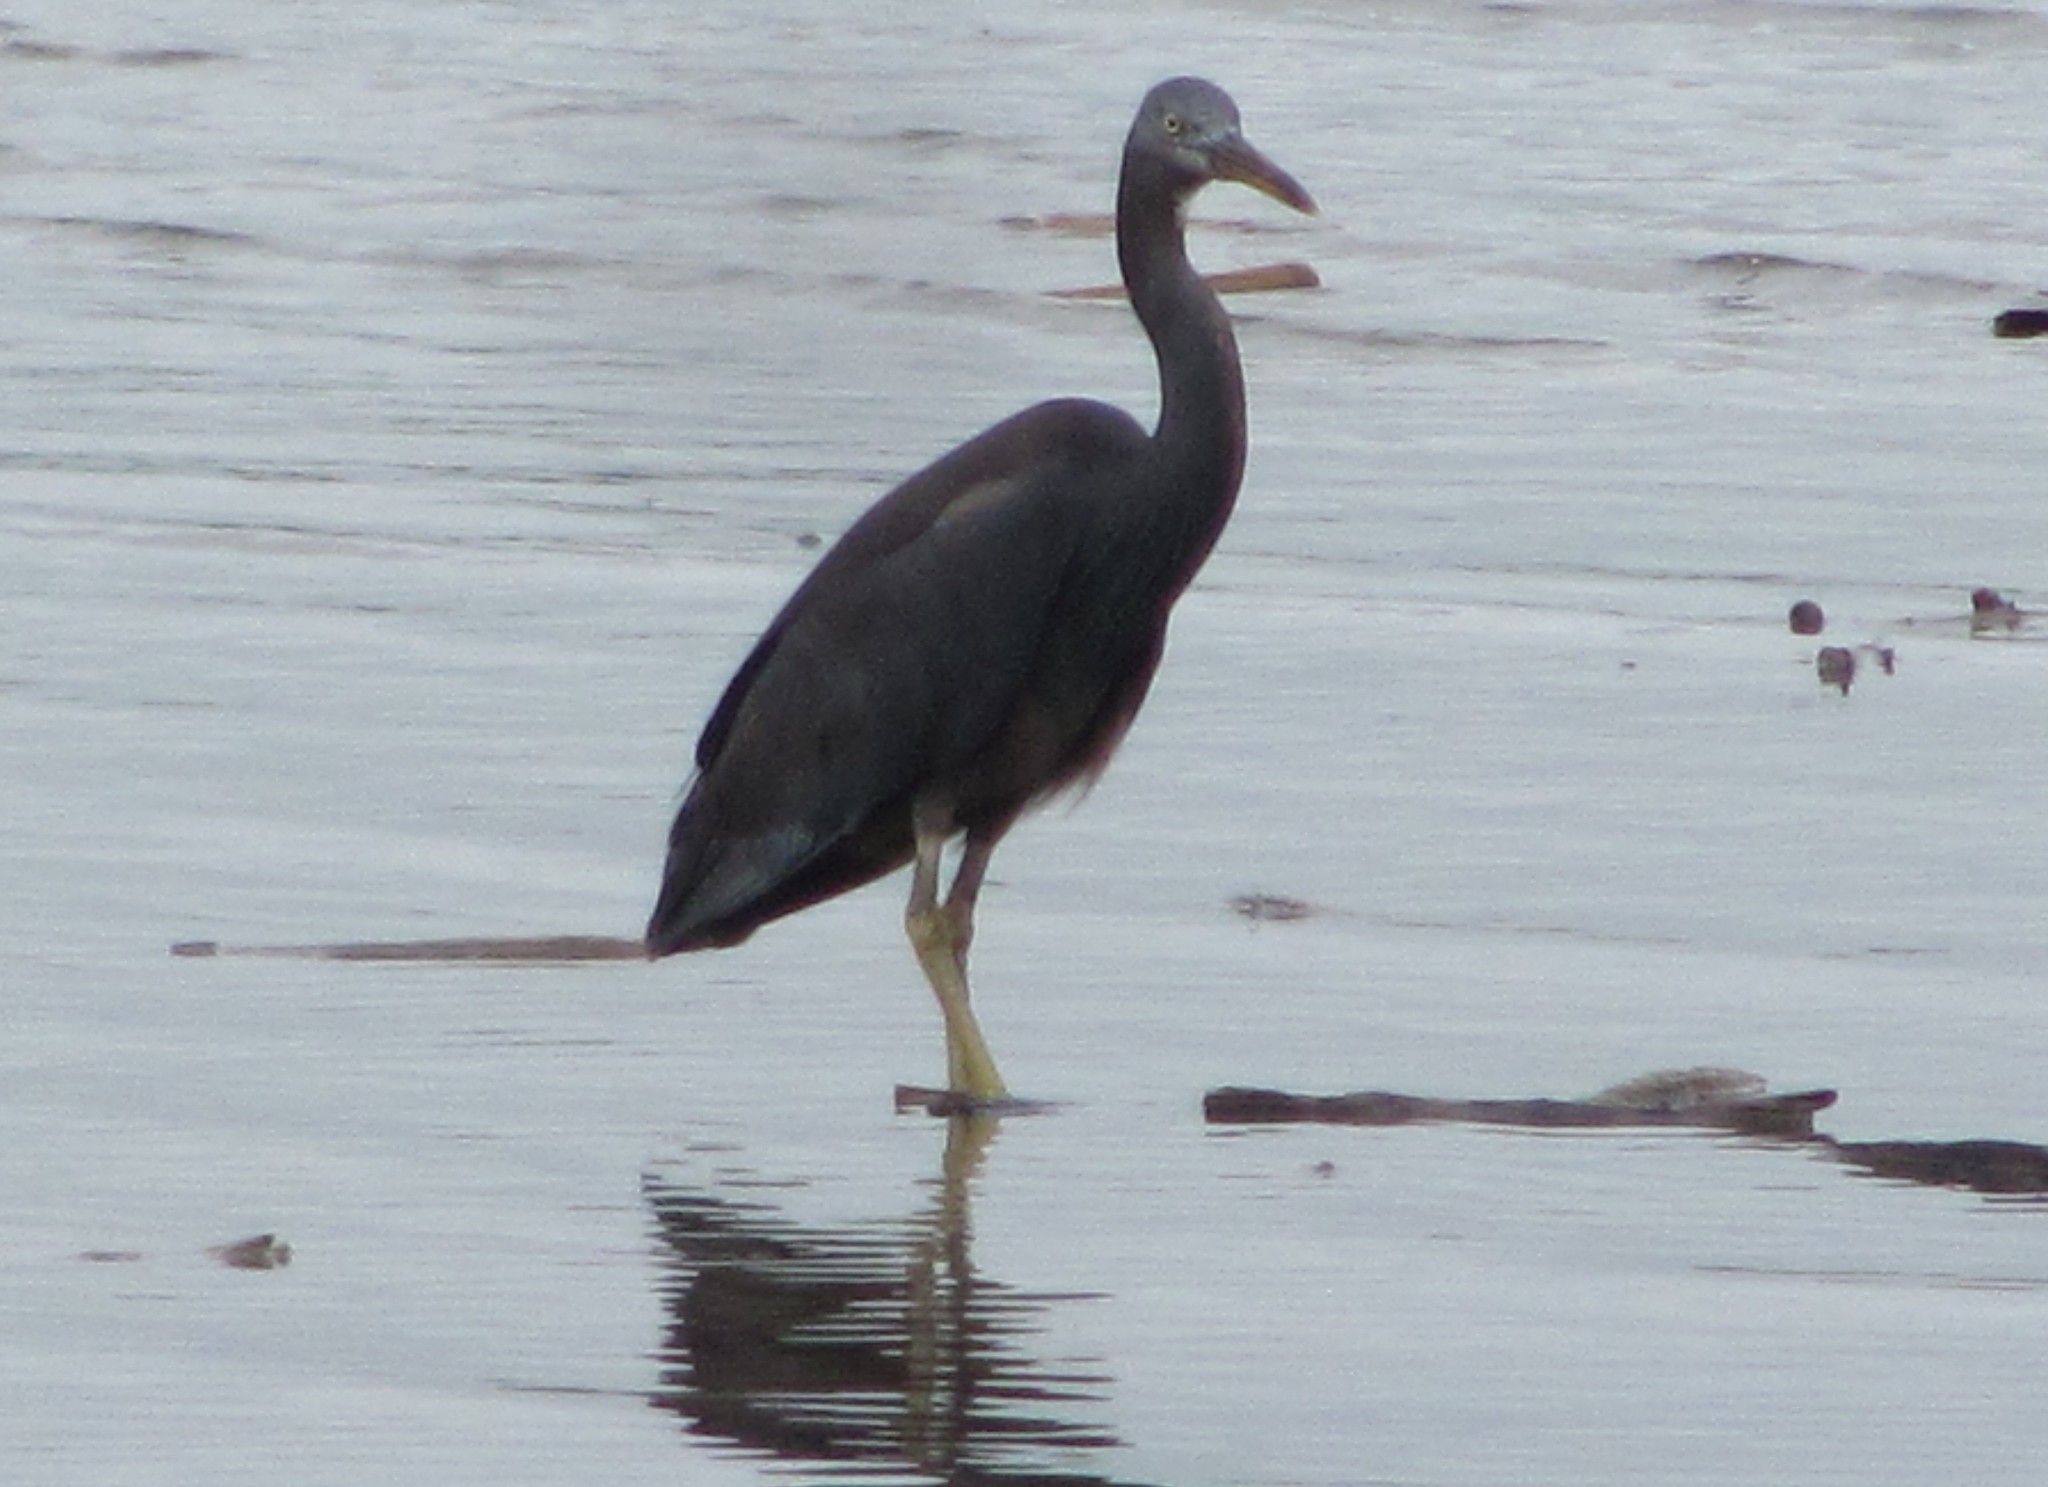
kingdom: Animalia
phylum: Chordata
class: Aves
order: Pelecaniformes
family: Ardeidae
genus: Egretta
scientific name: Egretta sacra
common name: Pacific reef heron
